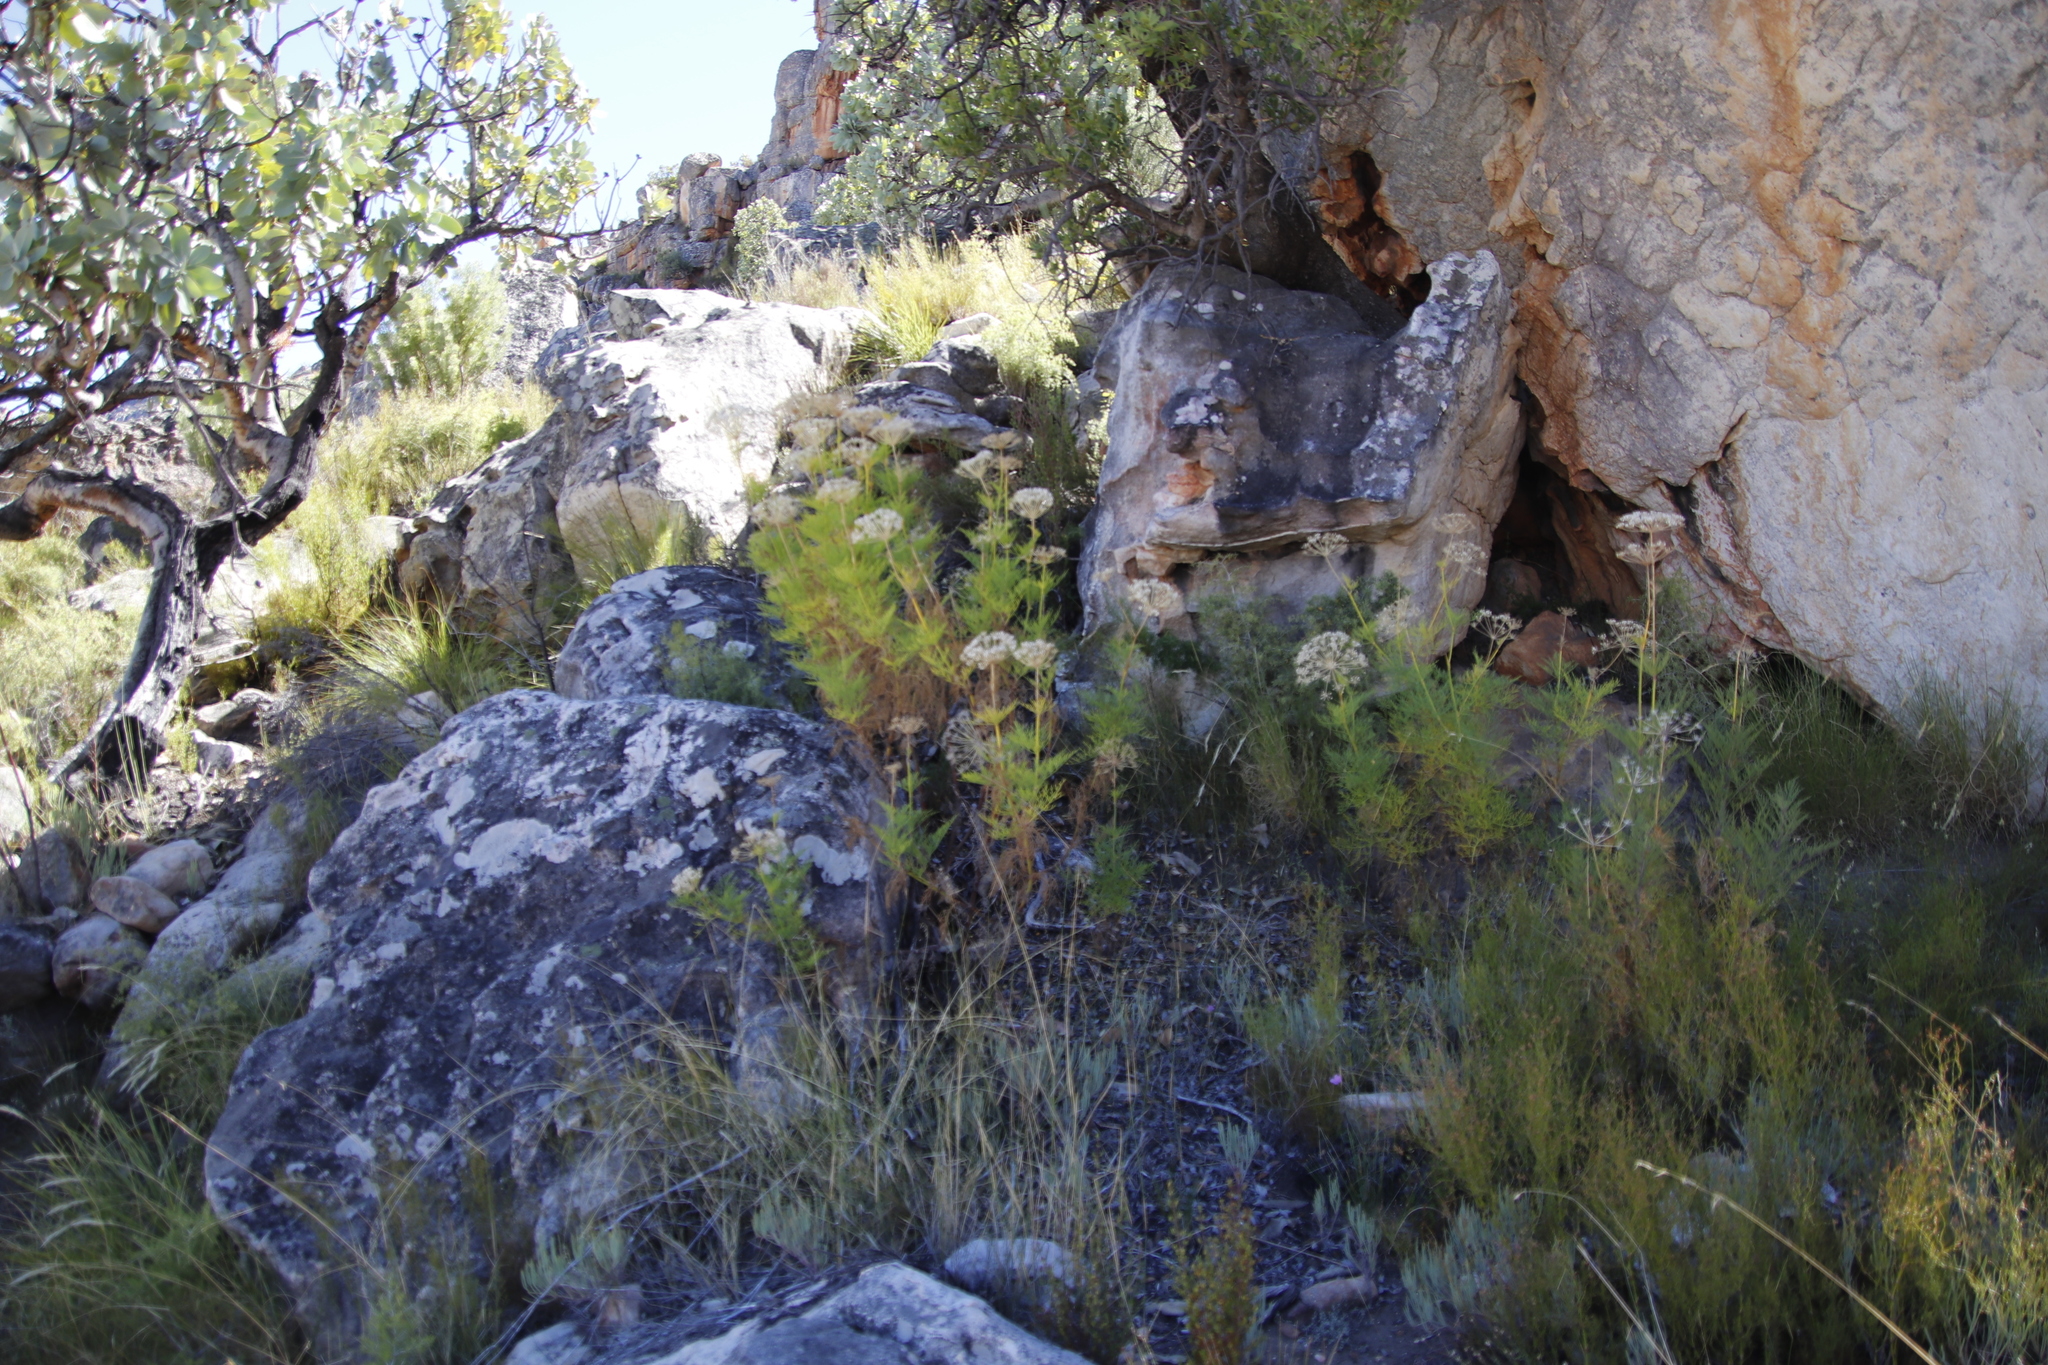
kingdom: Plantae
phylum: Tracheophyta
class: Magnoliopsida
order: Apiales
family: Apiaceae
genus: Notobubon
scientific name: Notobubon tenuifolium
